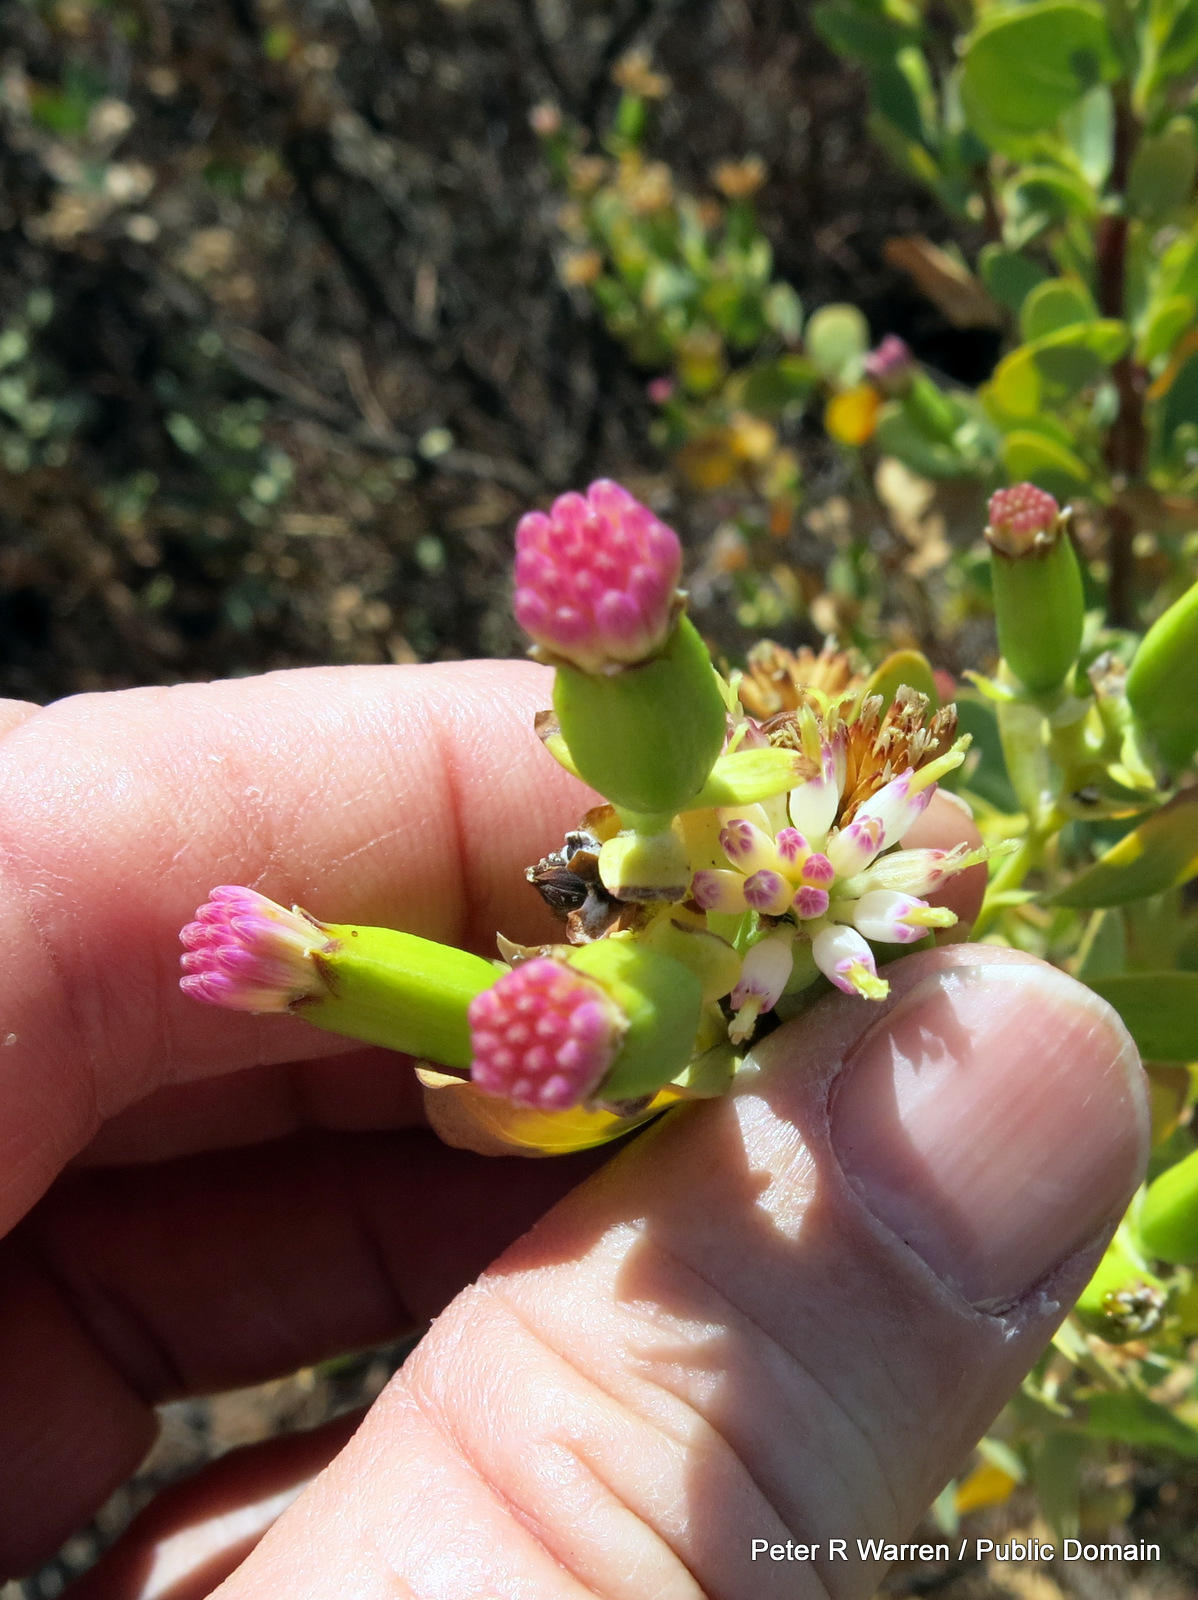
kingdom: Plantae
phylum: Tracheophyta
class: Magnoliopsida
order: Asterales
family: Asteraceae
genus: Lopholaena
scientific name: Lopholaena coriifolia
